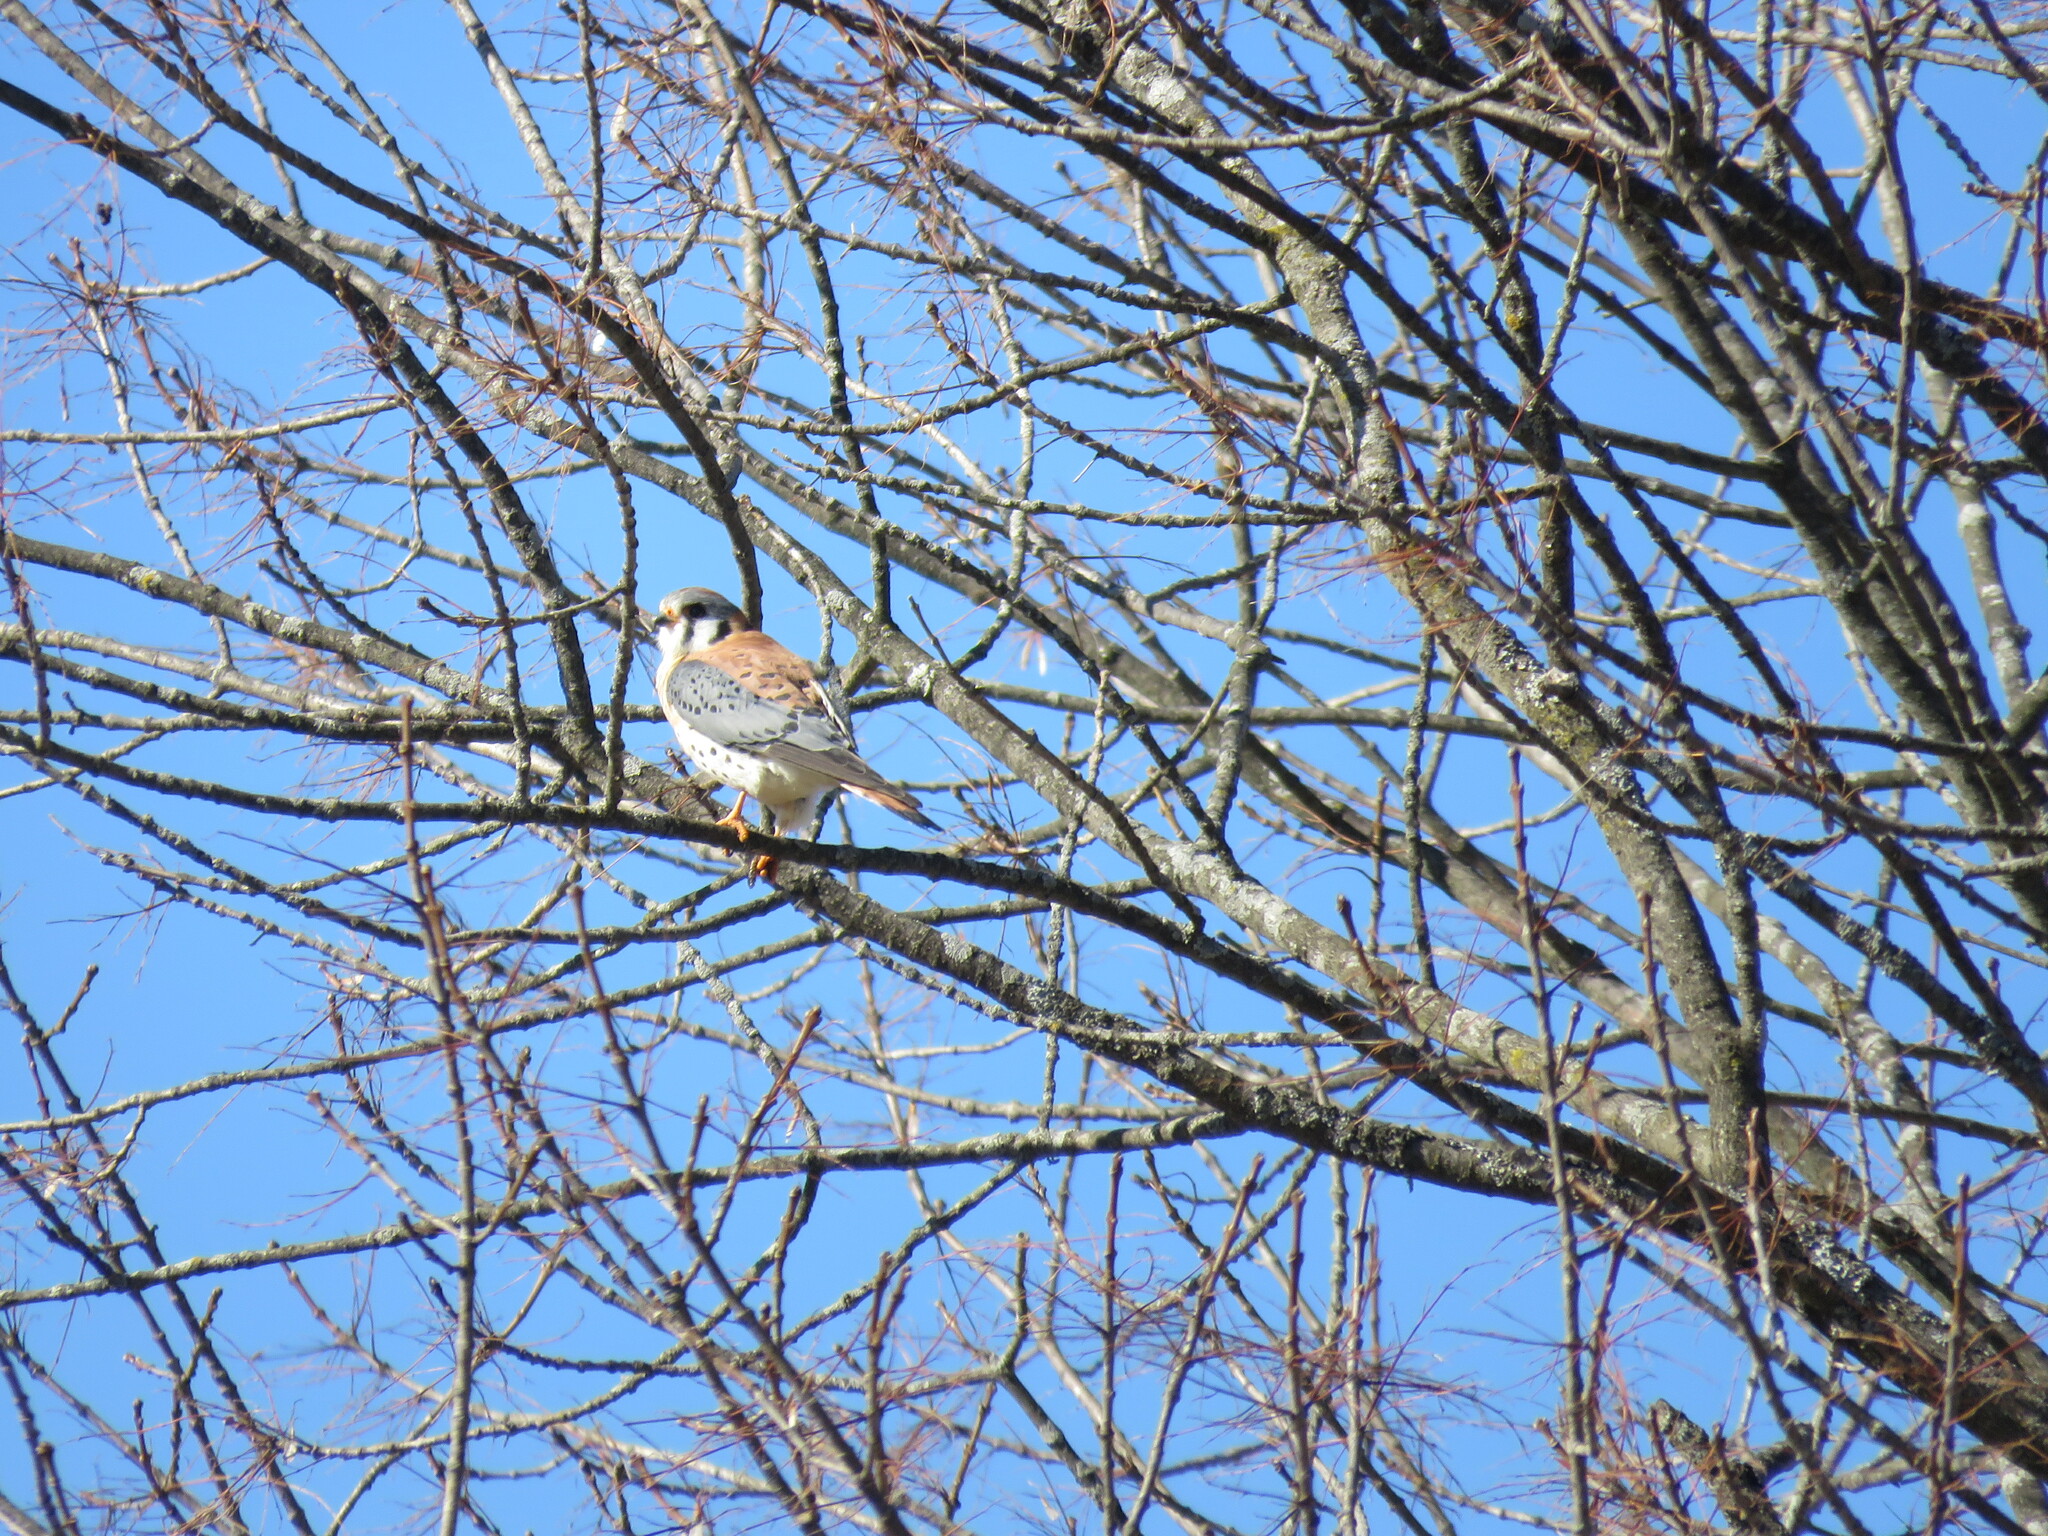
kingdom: Animalia
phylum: Chordata
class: Aves
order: Falconiformes
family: Falconidae
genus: Falco
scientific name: Falco sparverius
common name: American kestrel
